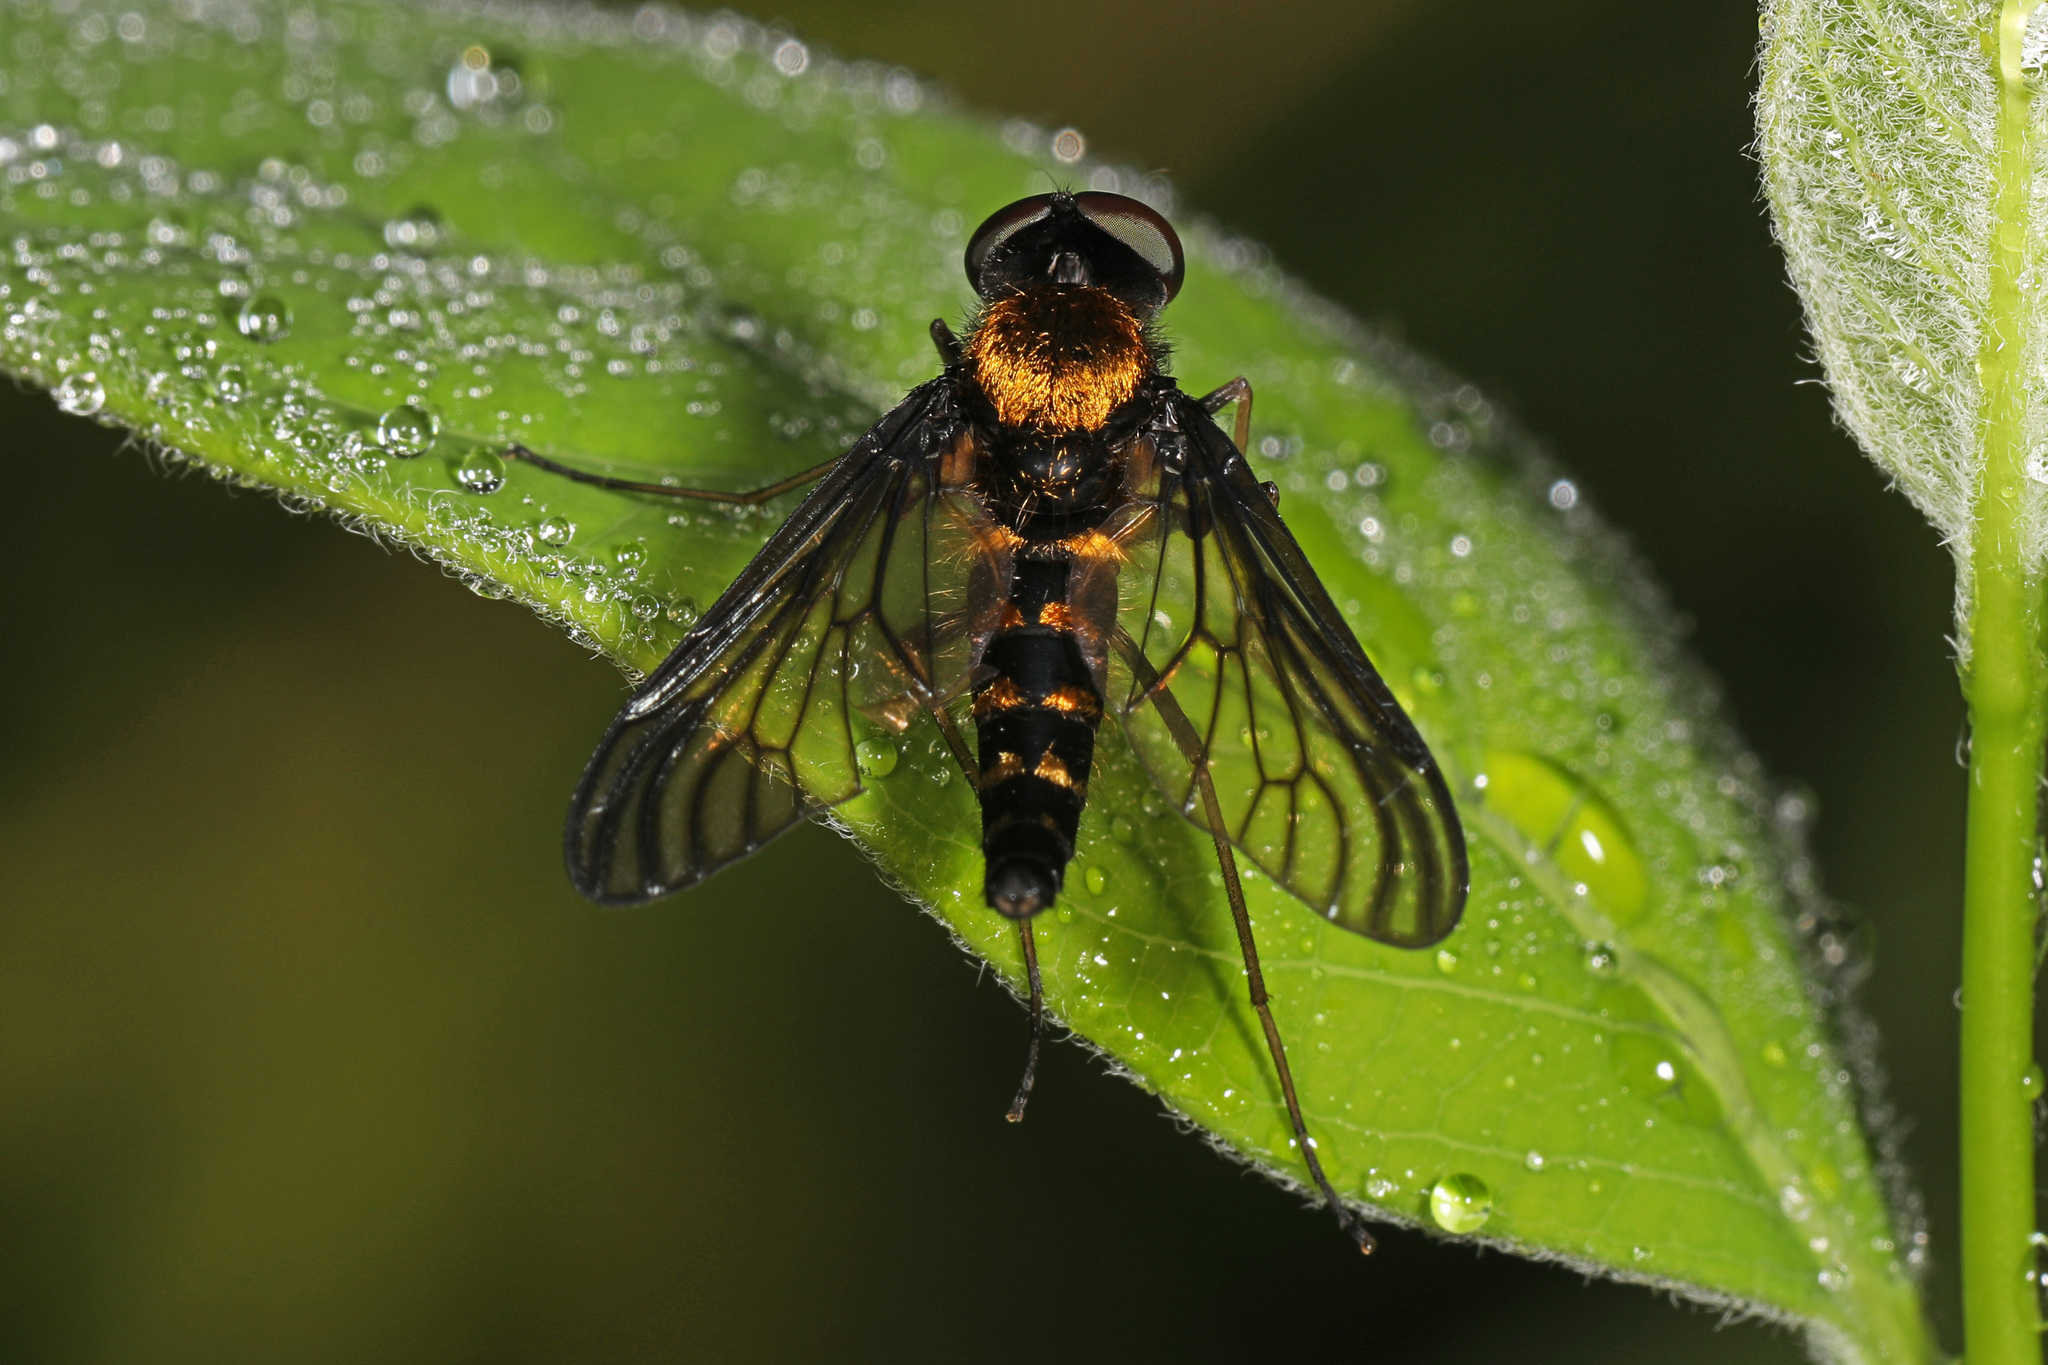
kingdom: Animalia
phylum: Arthropoda
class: Insecta
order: Diptera
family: Rhagionidae
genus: Chrysopilus
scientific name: Chrysopilus thoracicus
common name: Golden-backed snipe fly
